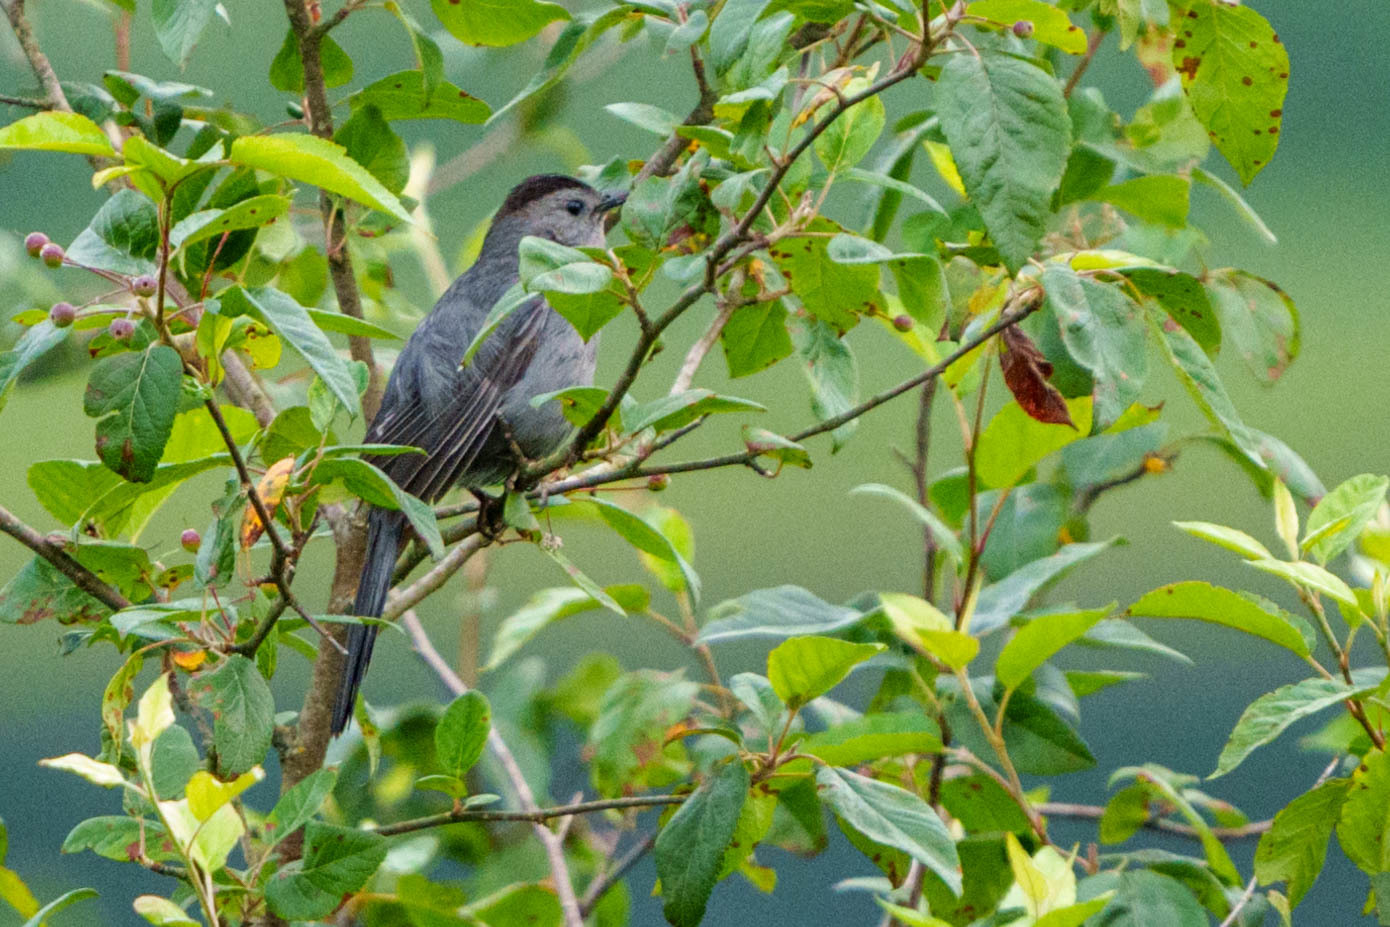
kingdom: Animalia
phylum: Chordata
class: Aves
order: Passeriformes
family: Mimidae
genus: Dumetella
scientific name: Dumetella carolinensis
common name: Gray catbird
